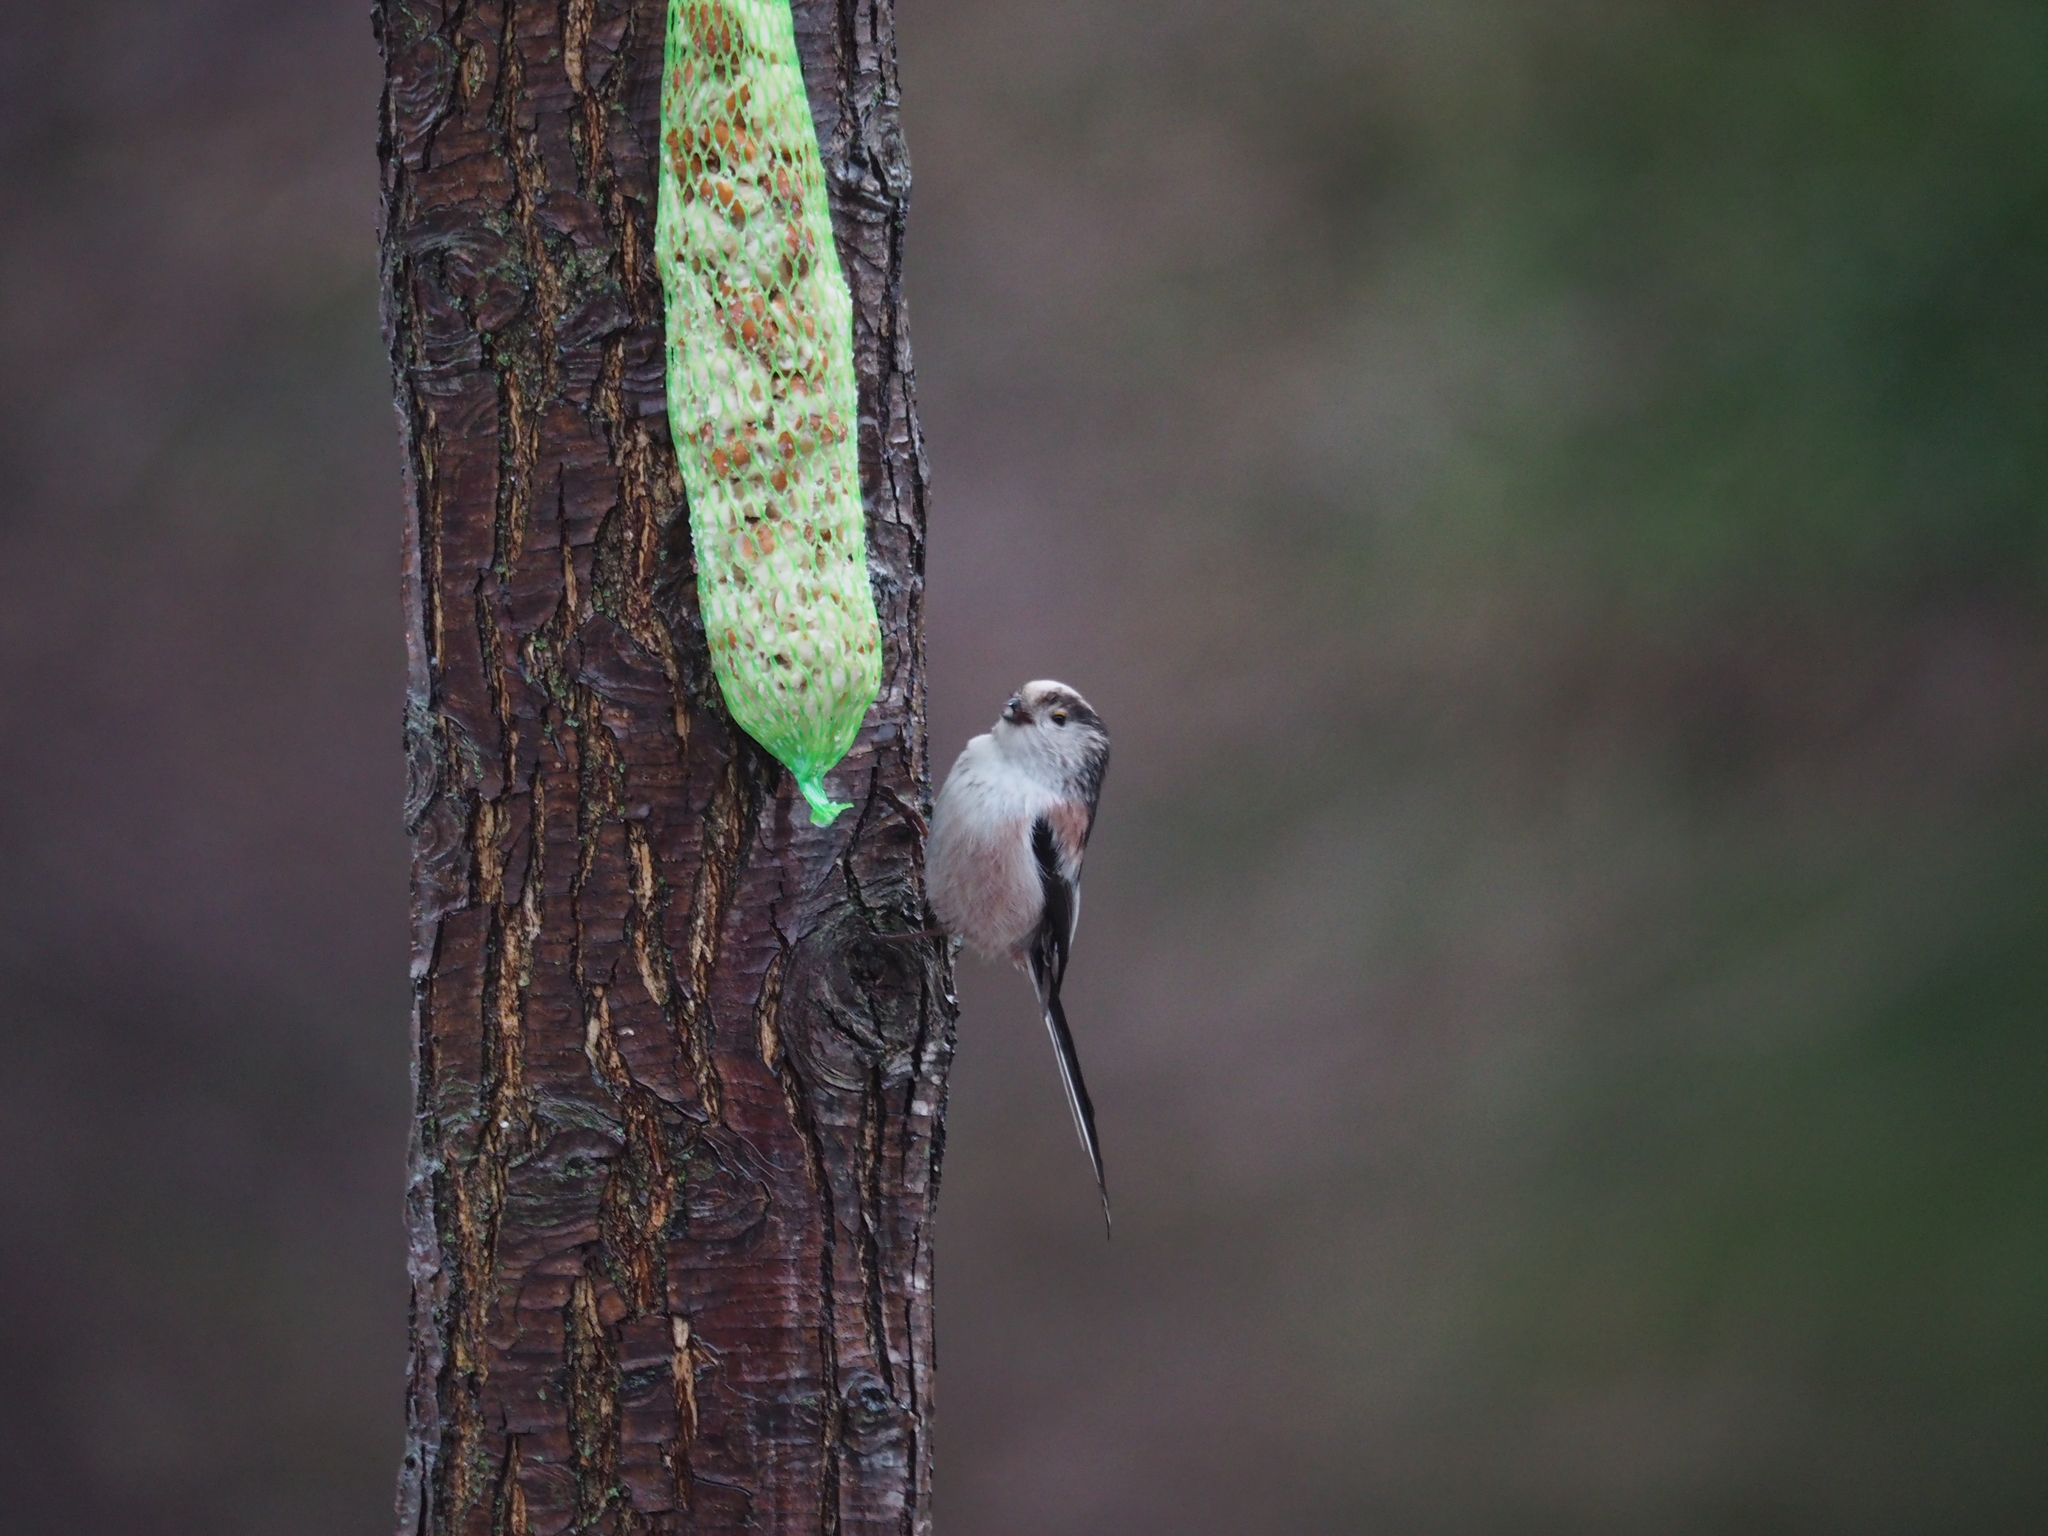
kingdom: Animalia
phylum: Chordata
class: Aves
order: Passeriformes
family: Aegithalidae
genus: Aegithalos
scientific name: Aegithalos caudatus
